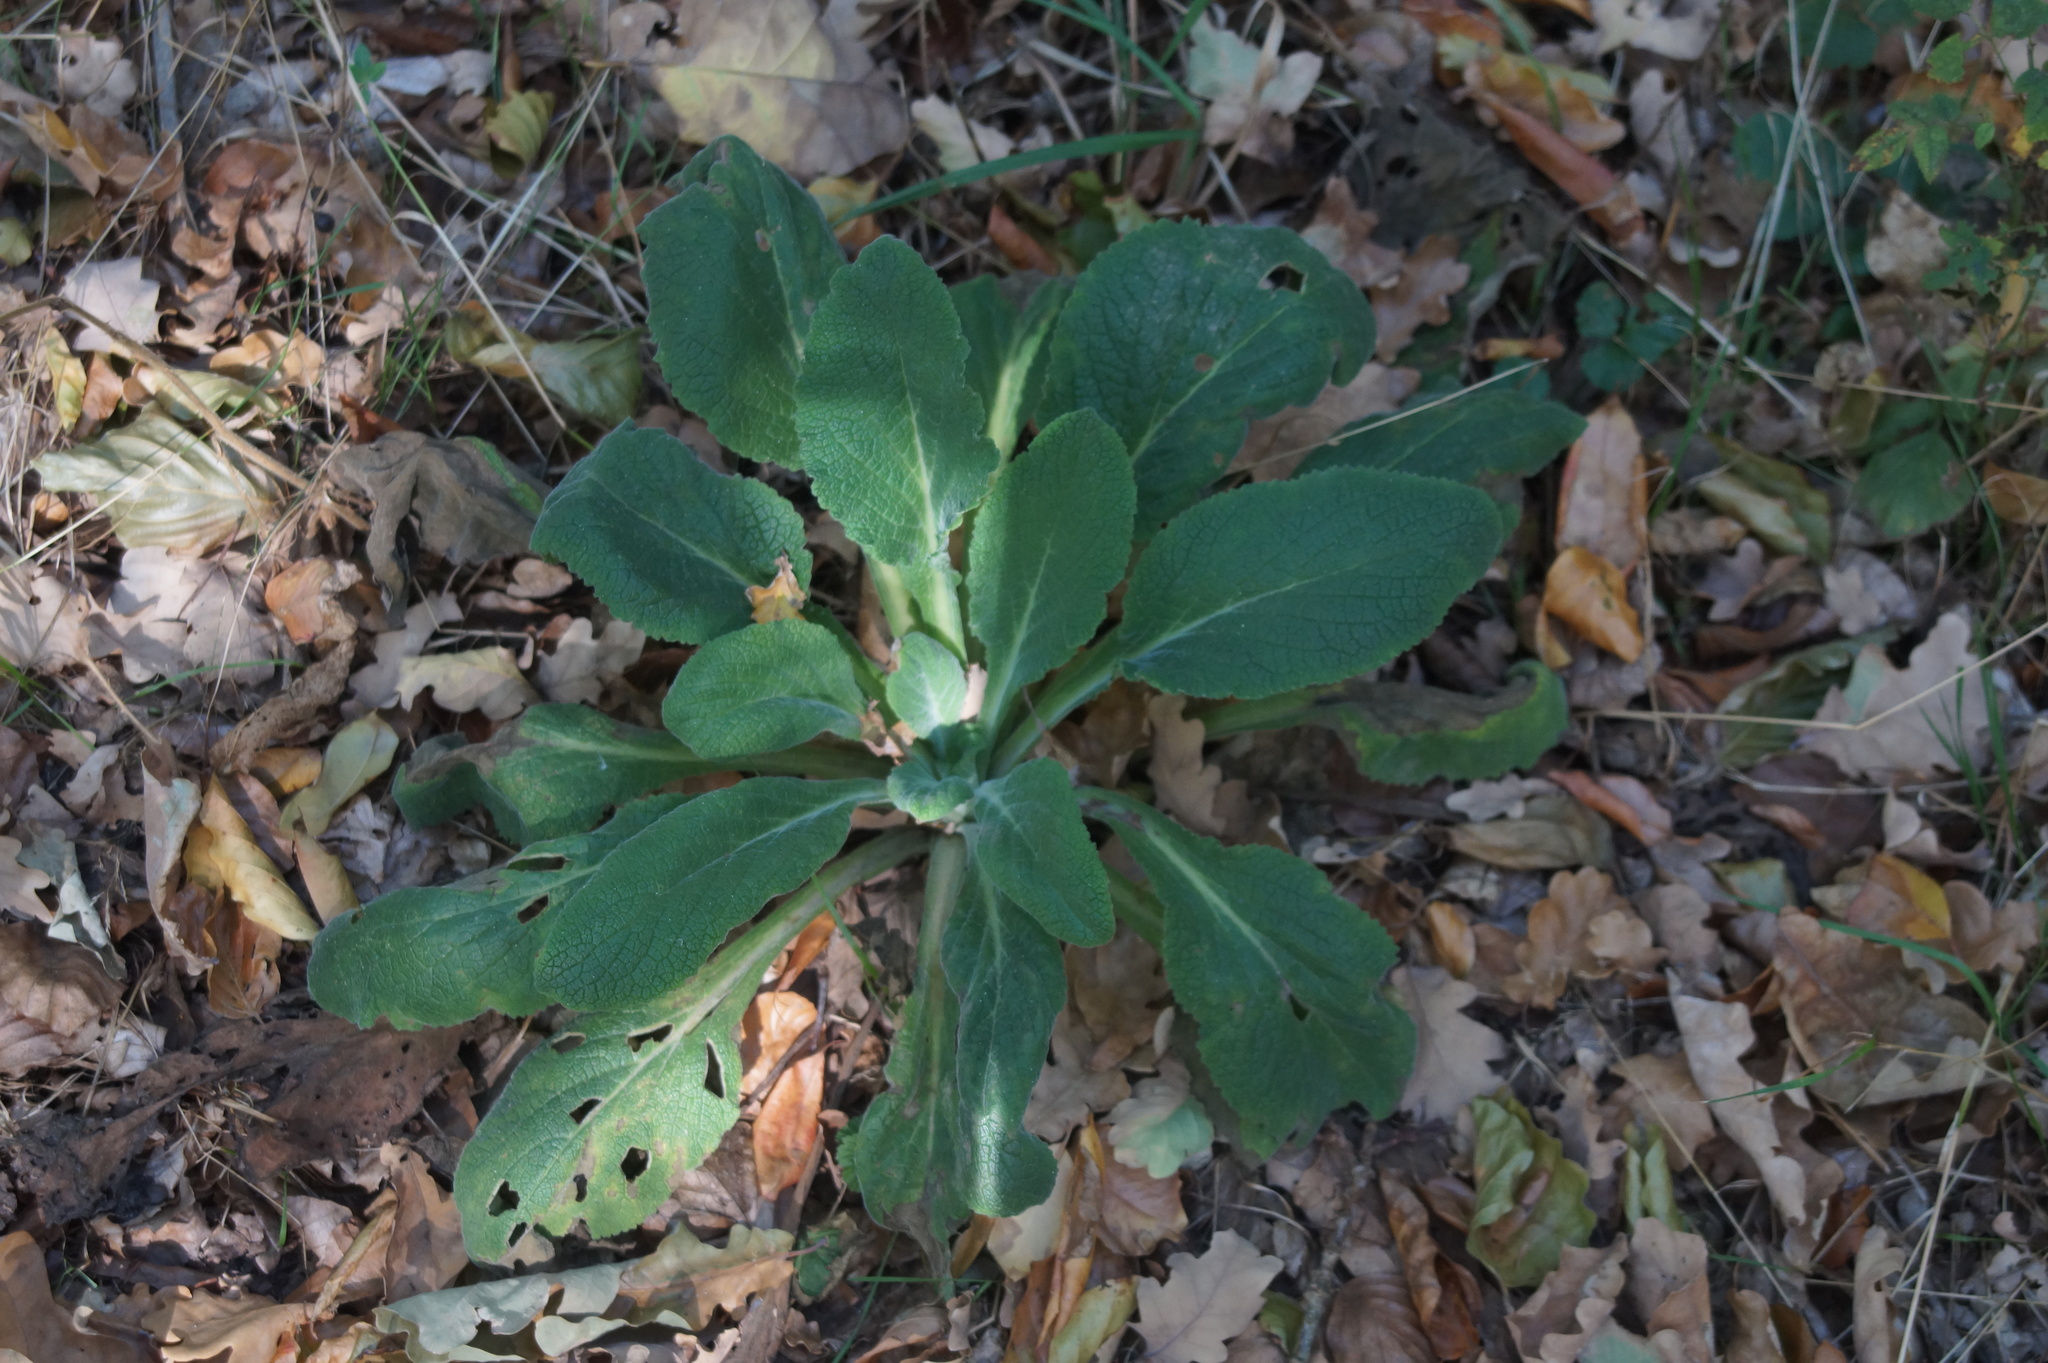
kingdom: Plantae
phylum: Tracheophyta
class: Magnoliopsida
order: Lamiales
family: Plantaginaceae
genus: Digitalis
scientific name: Digitalis purpurea
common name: Foxglove
